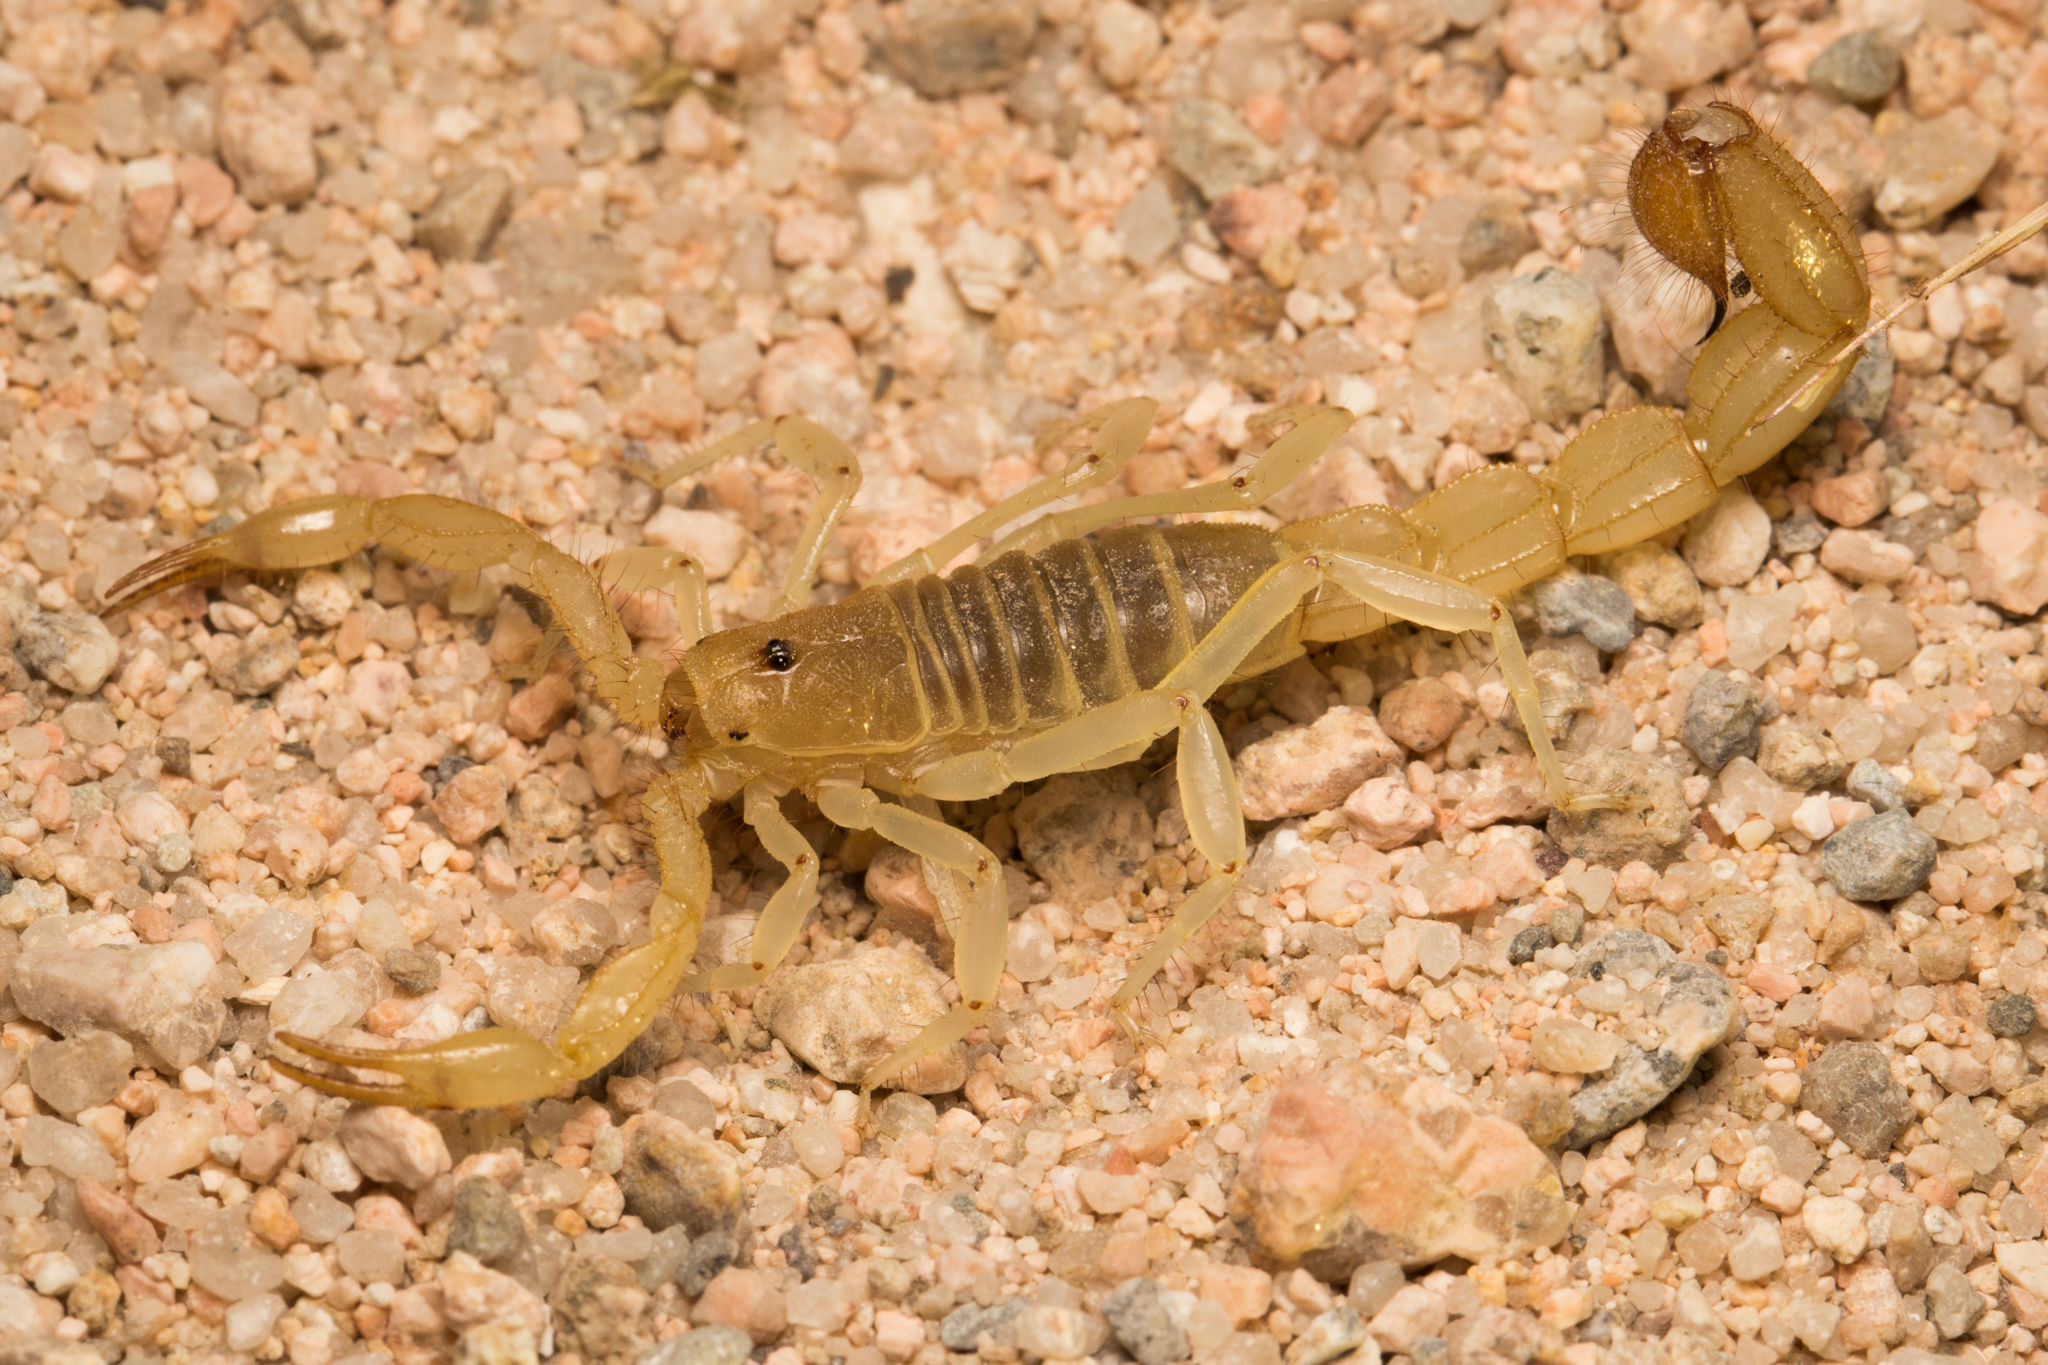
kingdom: Animalia
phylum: Arthropoda
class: Arachnida
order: Scorpiones
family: Vaejovidae
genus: Paravaejovis
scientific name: Paravaejovis eusthenura
